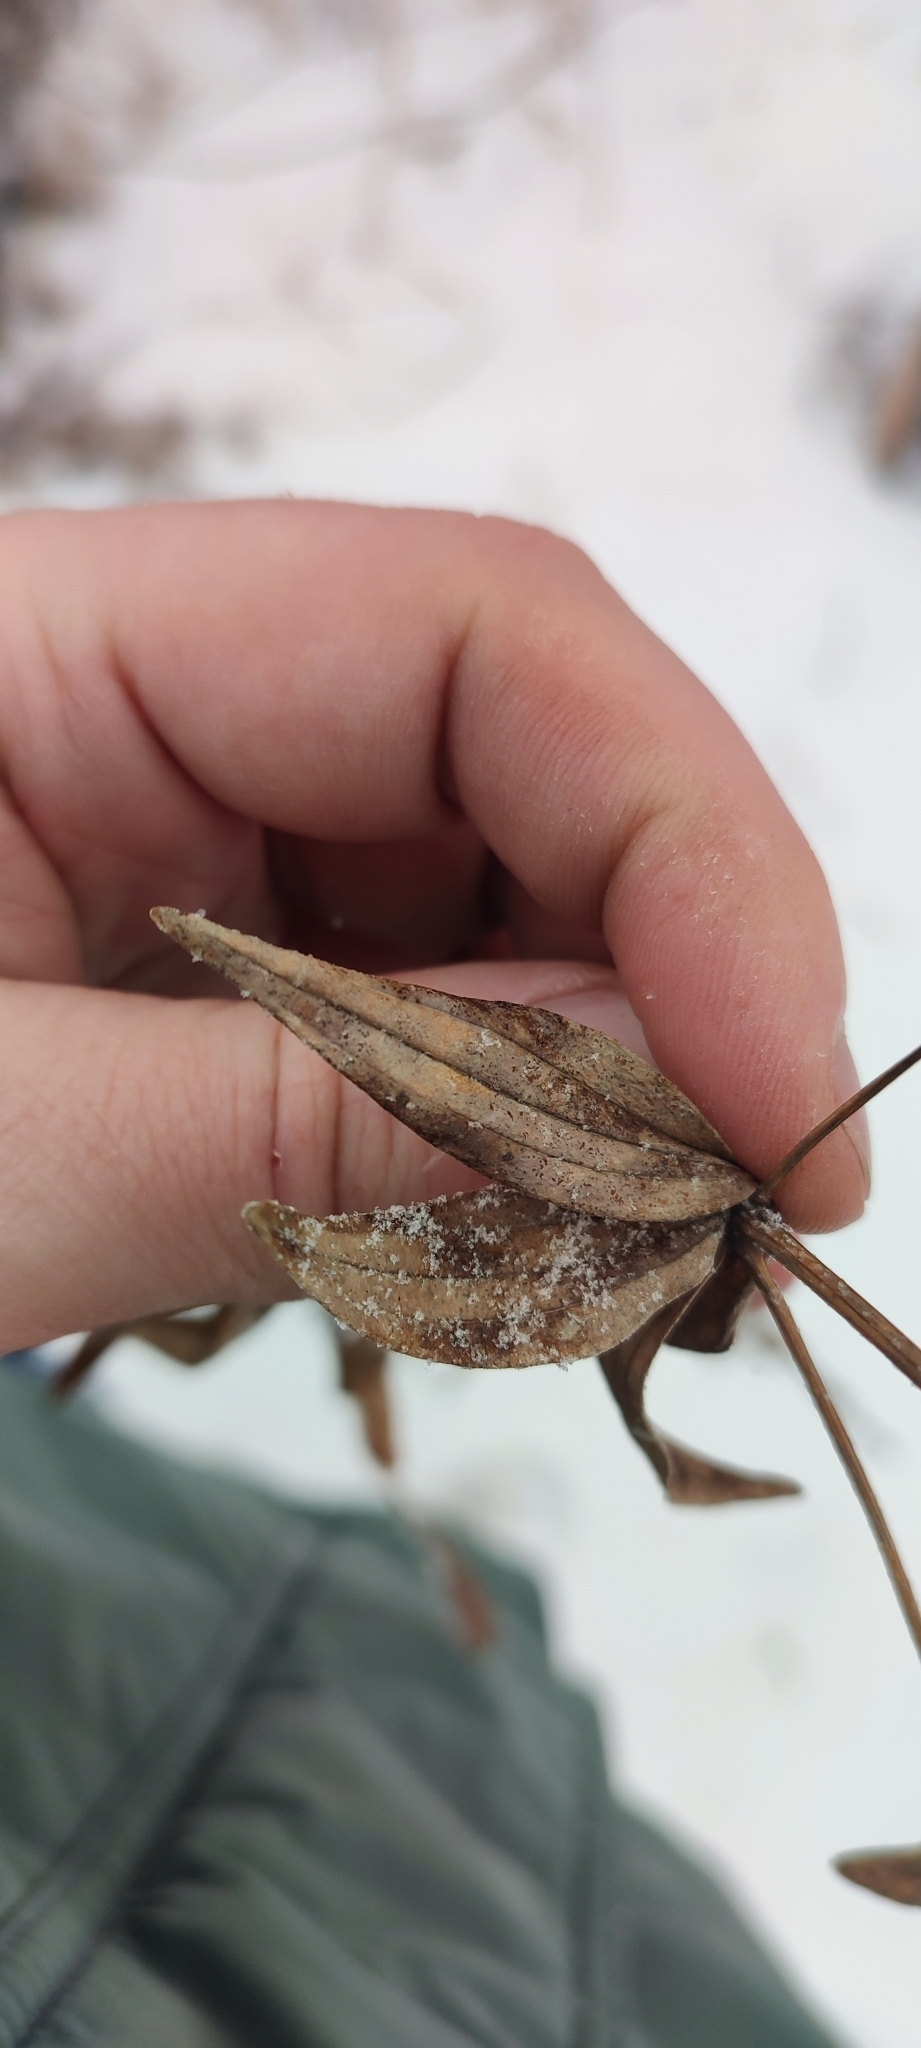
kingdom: Plantae
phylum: Tracheophyta
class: Magnoliopsida
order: Gentianales
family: Rubiaceae
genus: Galium
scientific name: Galium pseudoboreale
